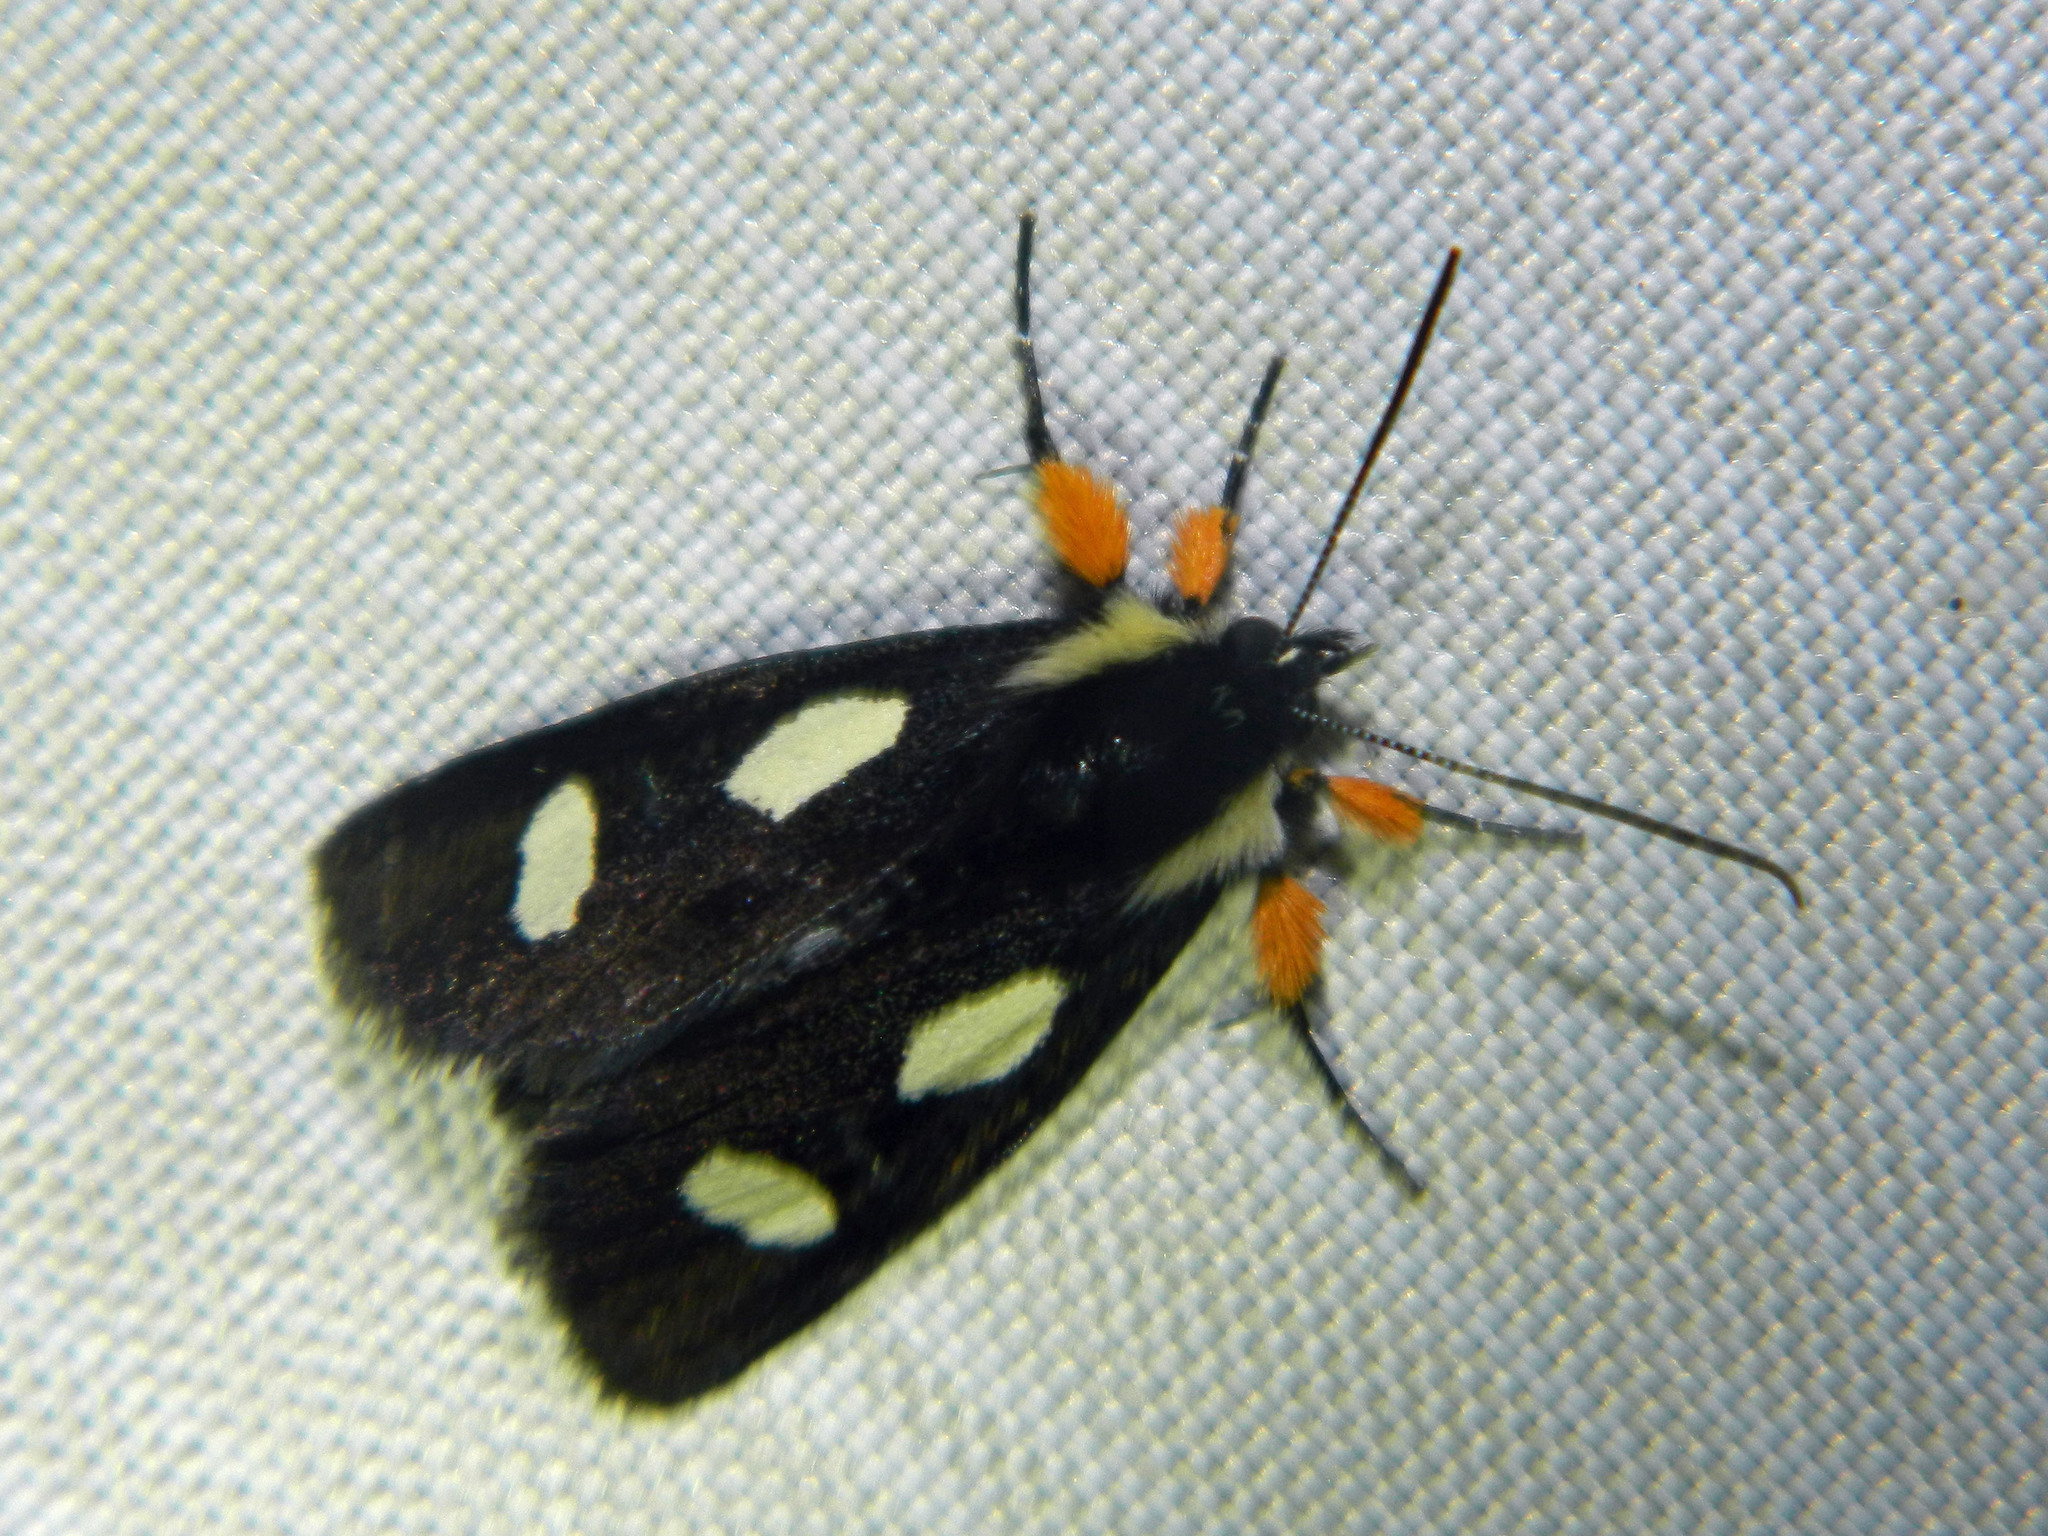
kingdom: Animalia
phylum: Arthropoda
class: Insecta
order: Lepidoptera
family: Noctuidae
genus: Alypia
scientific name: Alypia langtonii
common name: Fireweed caterpillar
